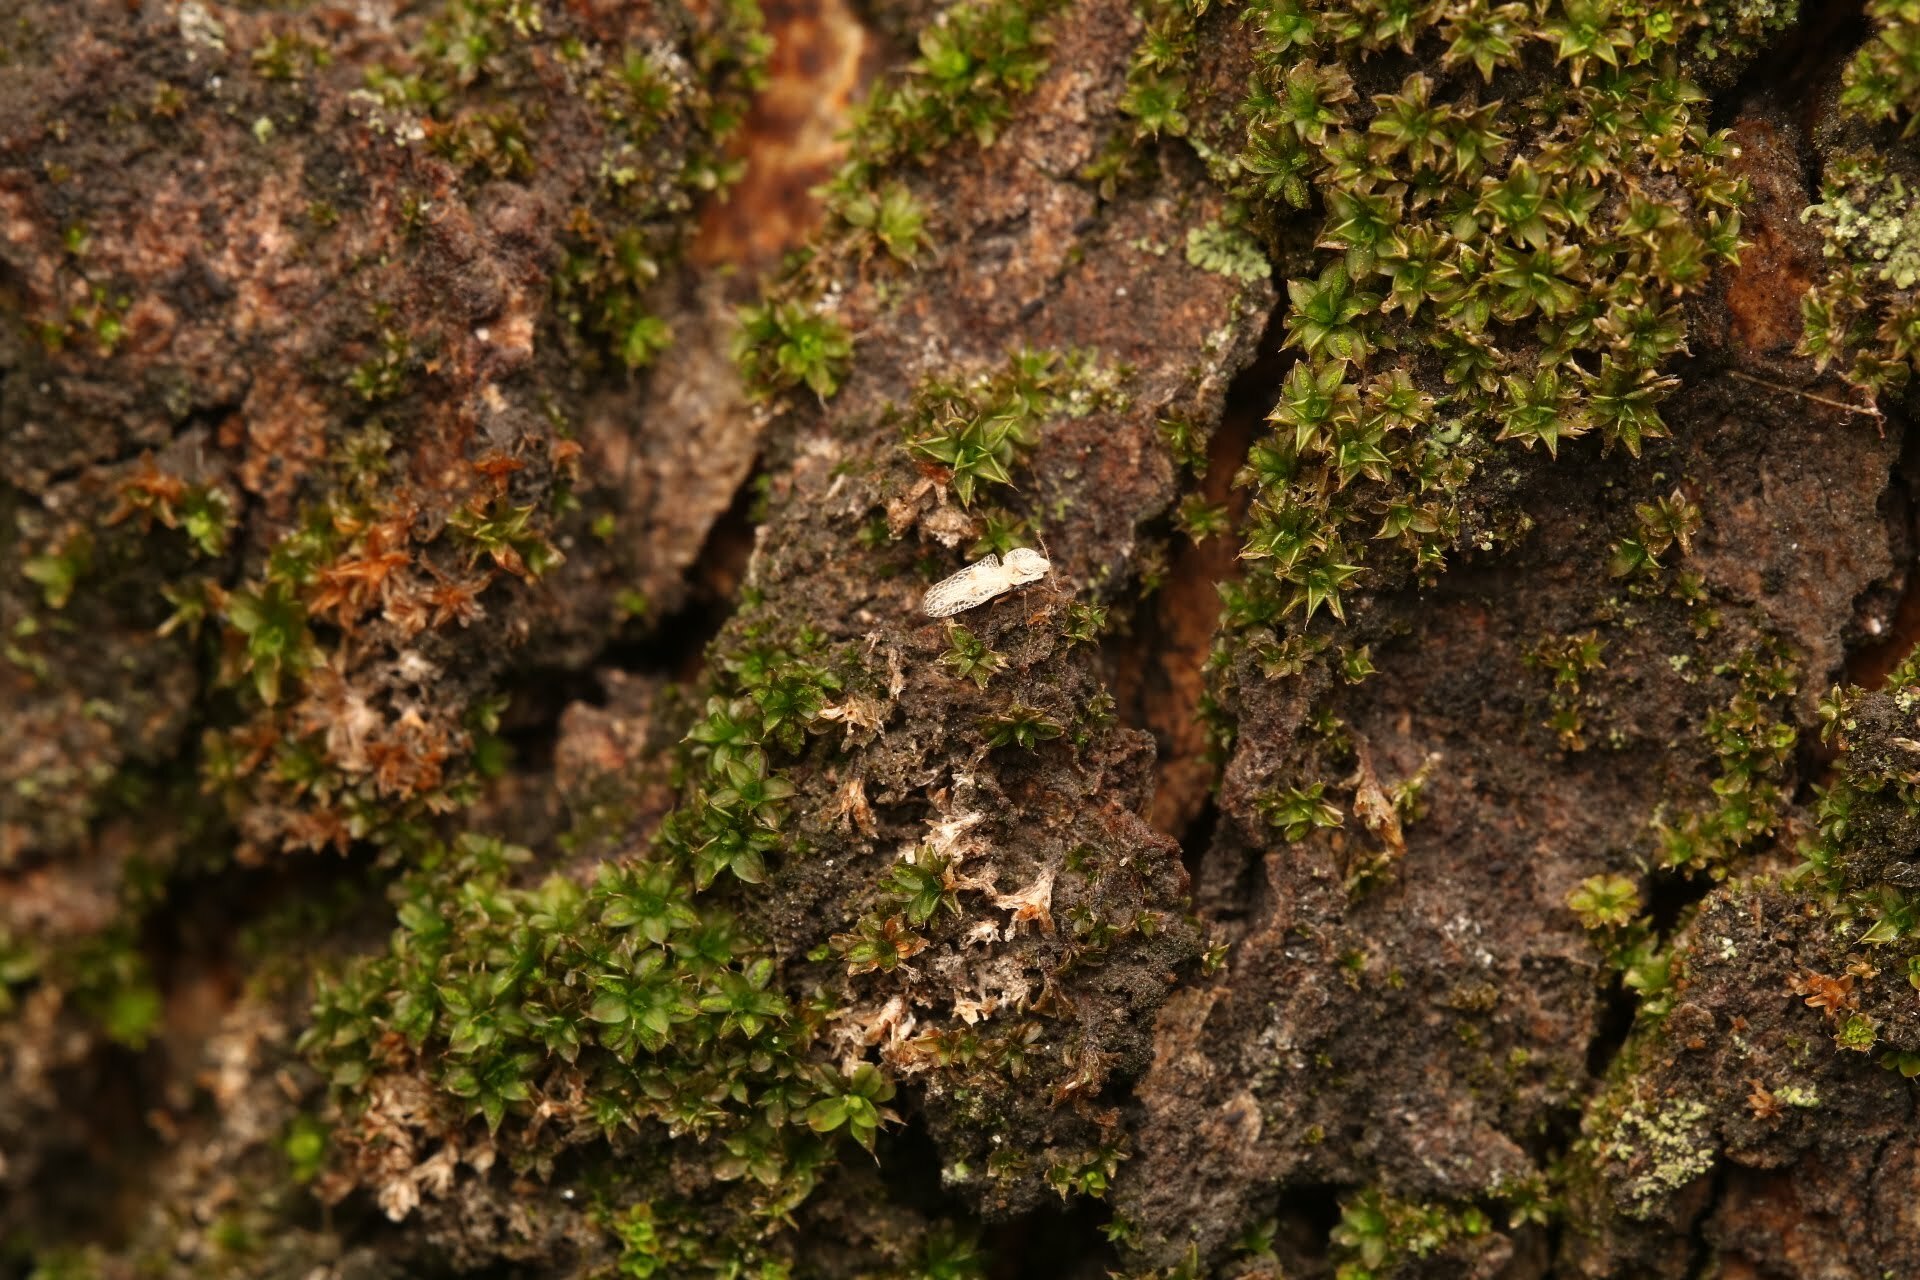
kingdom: Animalia
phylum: Arthropoda
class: Insecta
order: Hemiptera
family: Tingidae
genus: Corythucha
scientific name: Corythucha ciliata
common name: Sycamore lace bug
